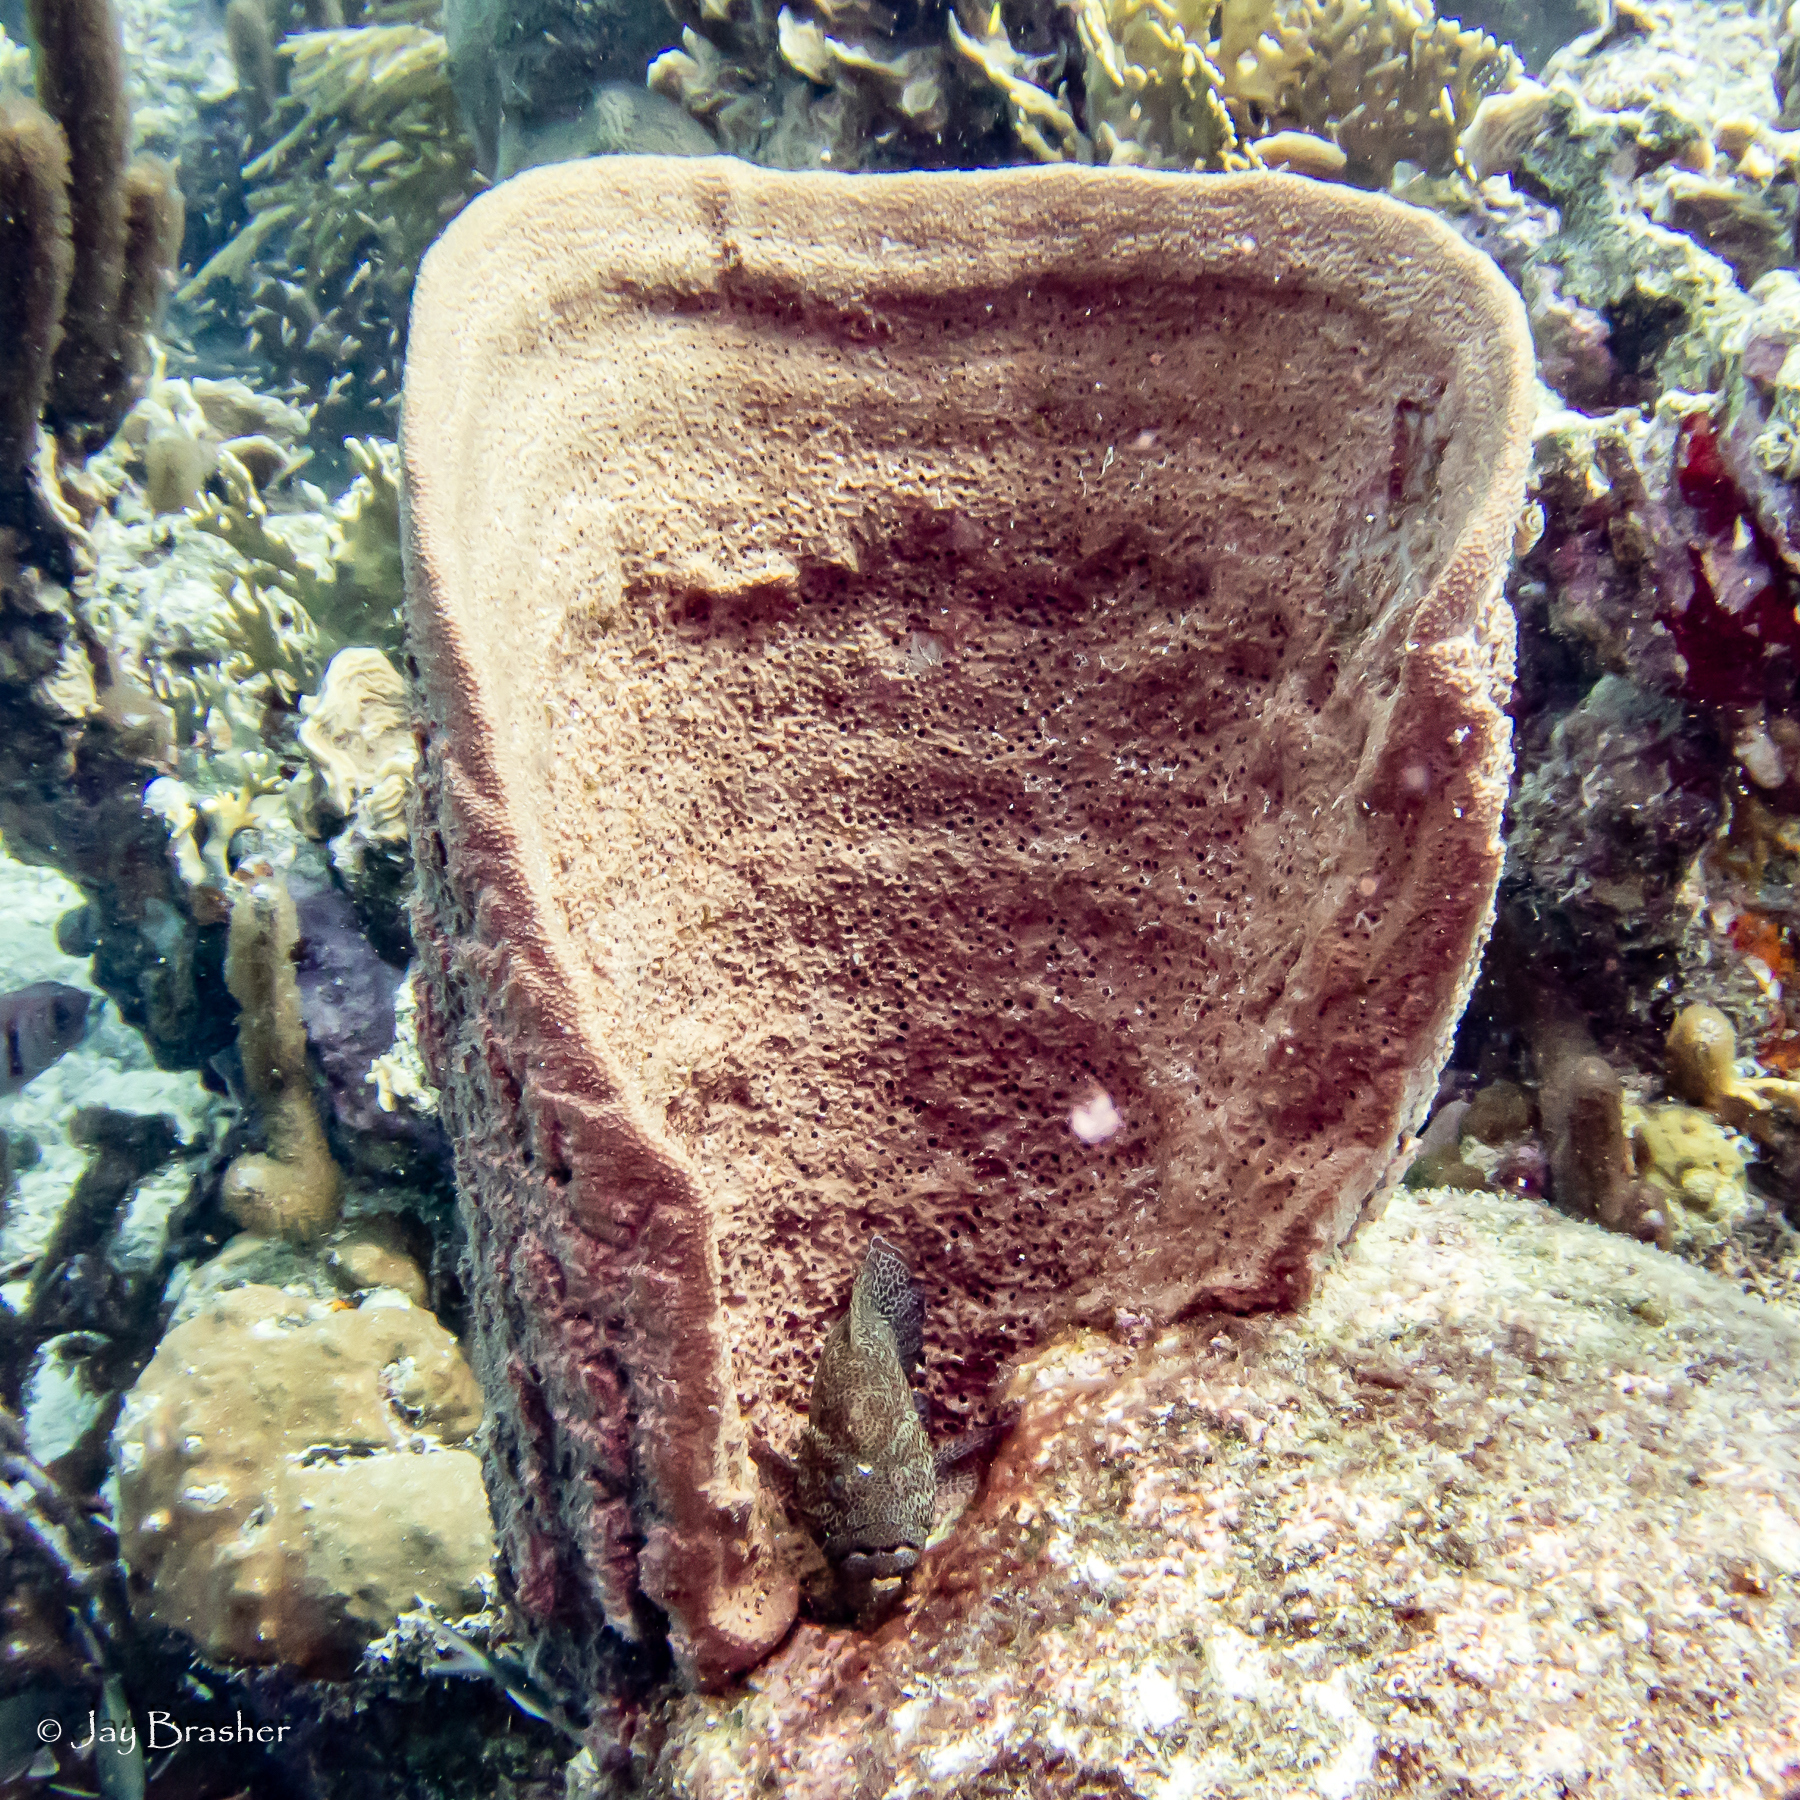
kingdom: Animalia
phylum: Chordata
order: Perciformes
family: Serranidae
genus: Cephalopholis
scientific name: Cephalopholis cruentata
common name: Graysby
